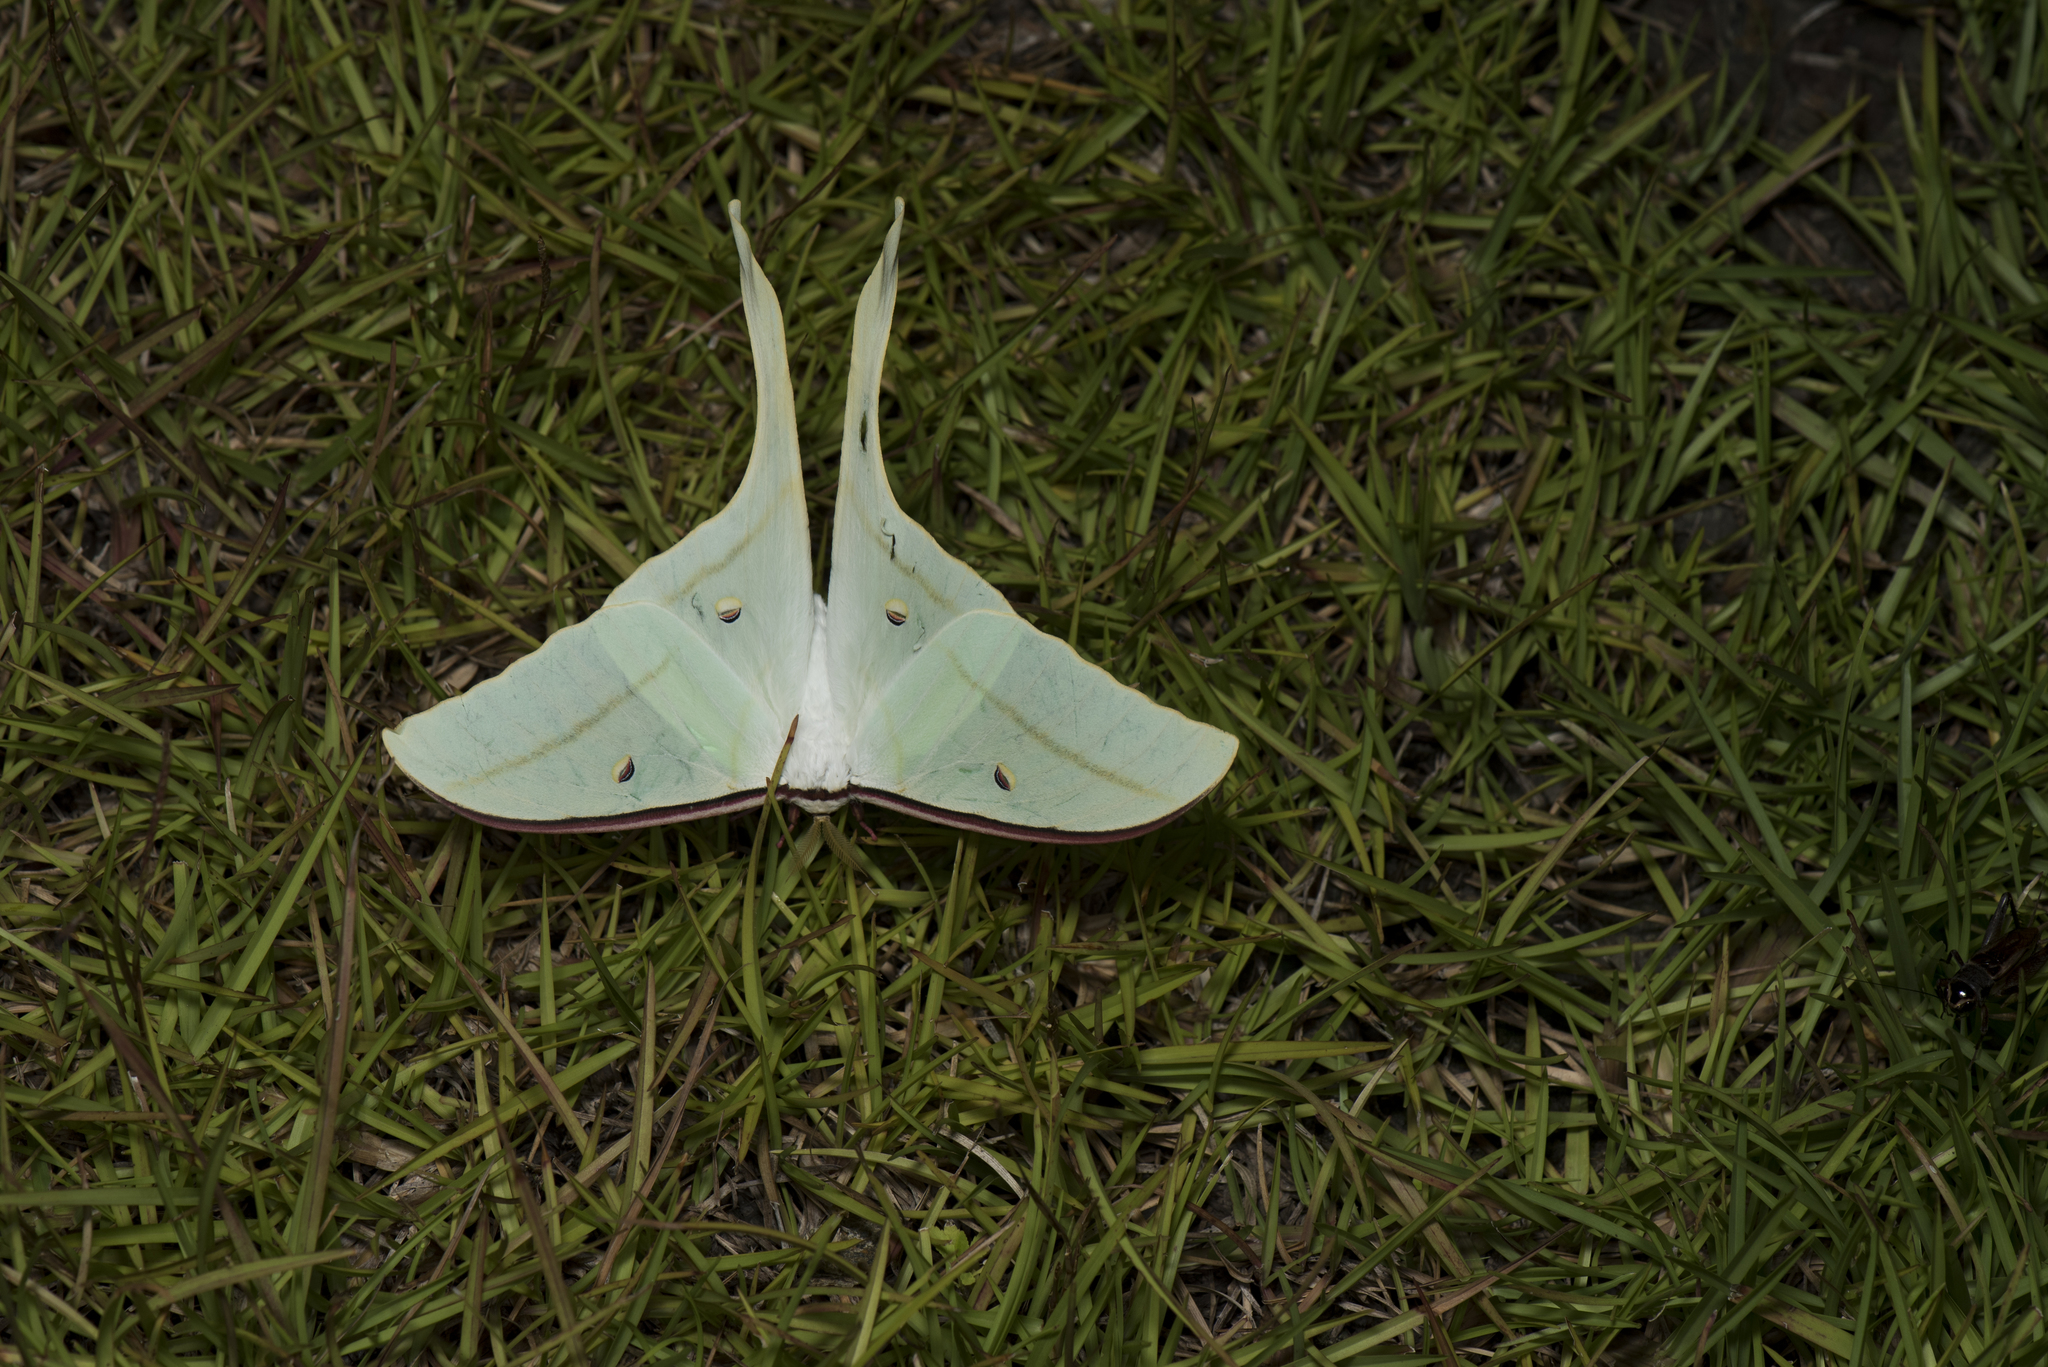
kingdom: Animalia
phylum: Arthropoda
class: Insecta
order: Lepidoptera
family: Saturniidae
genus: Actias
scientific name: Actias ningpoana
